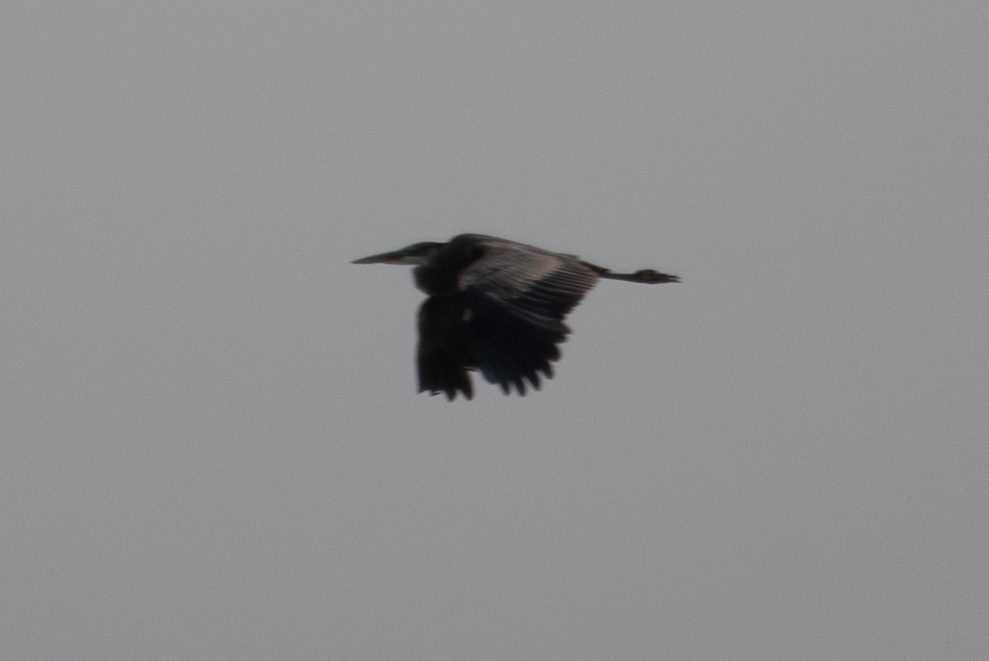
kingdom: Animalia
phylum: Chordata
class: Aves
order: Pelecaniformes
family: Ardeidae
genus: Ardea
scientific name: Ardea herodias
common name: Great blue heron
